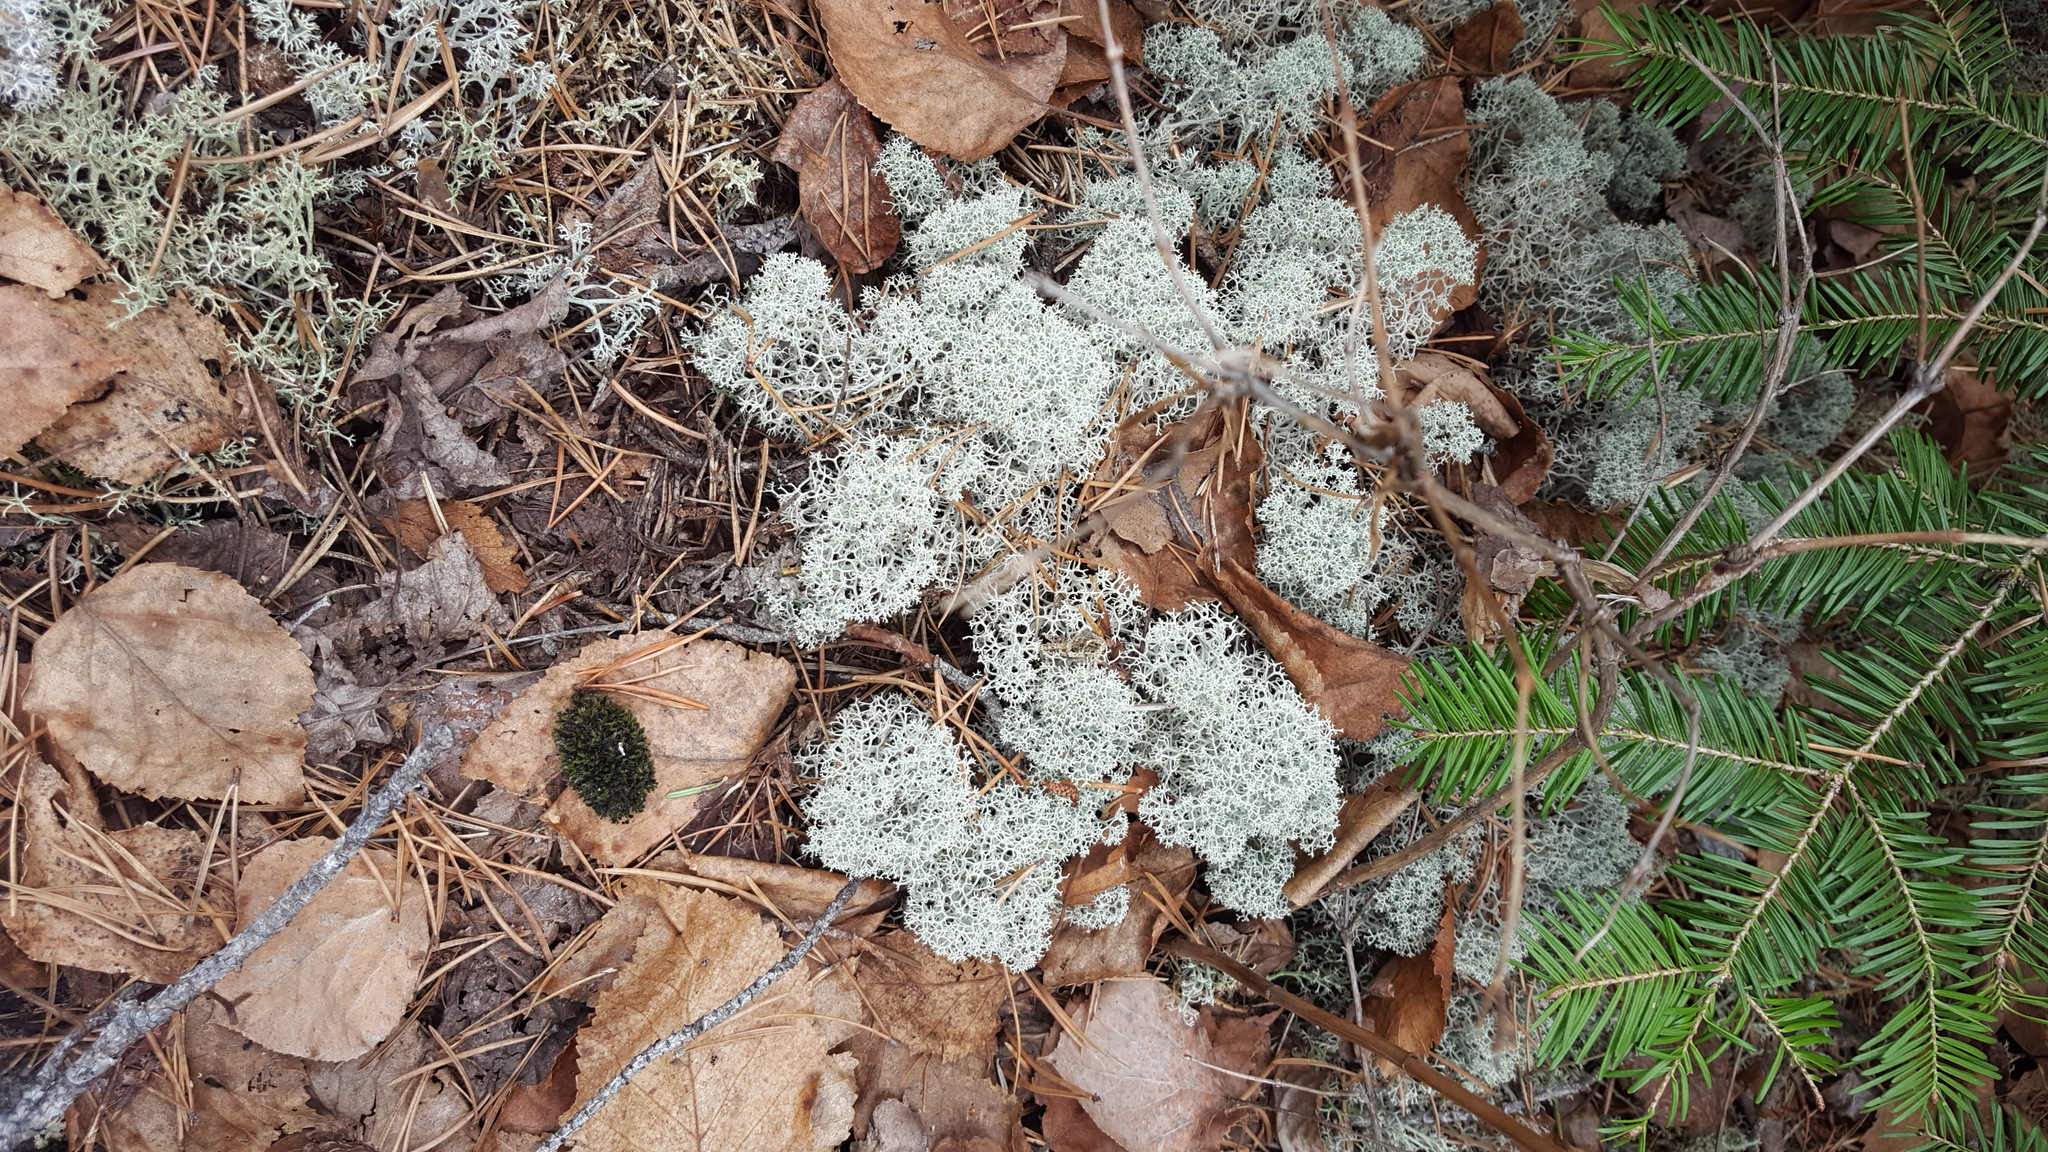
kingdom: Fungi
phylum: Ascomycota
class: Lecanoromycetes
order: Lecanorales
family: Cladoniaceae
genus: Cladonia
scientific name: Cladonia stellaris
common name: Star-tipped reindeer lichen
